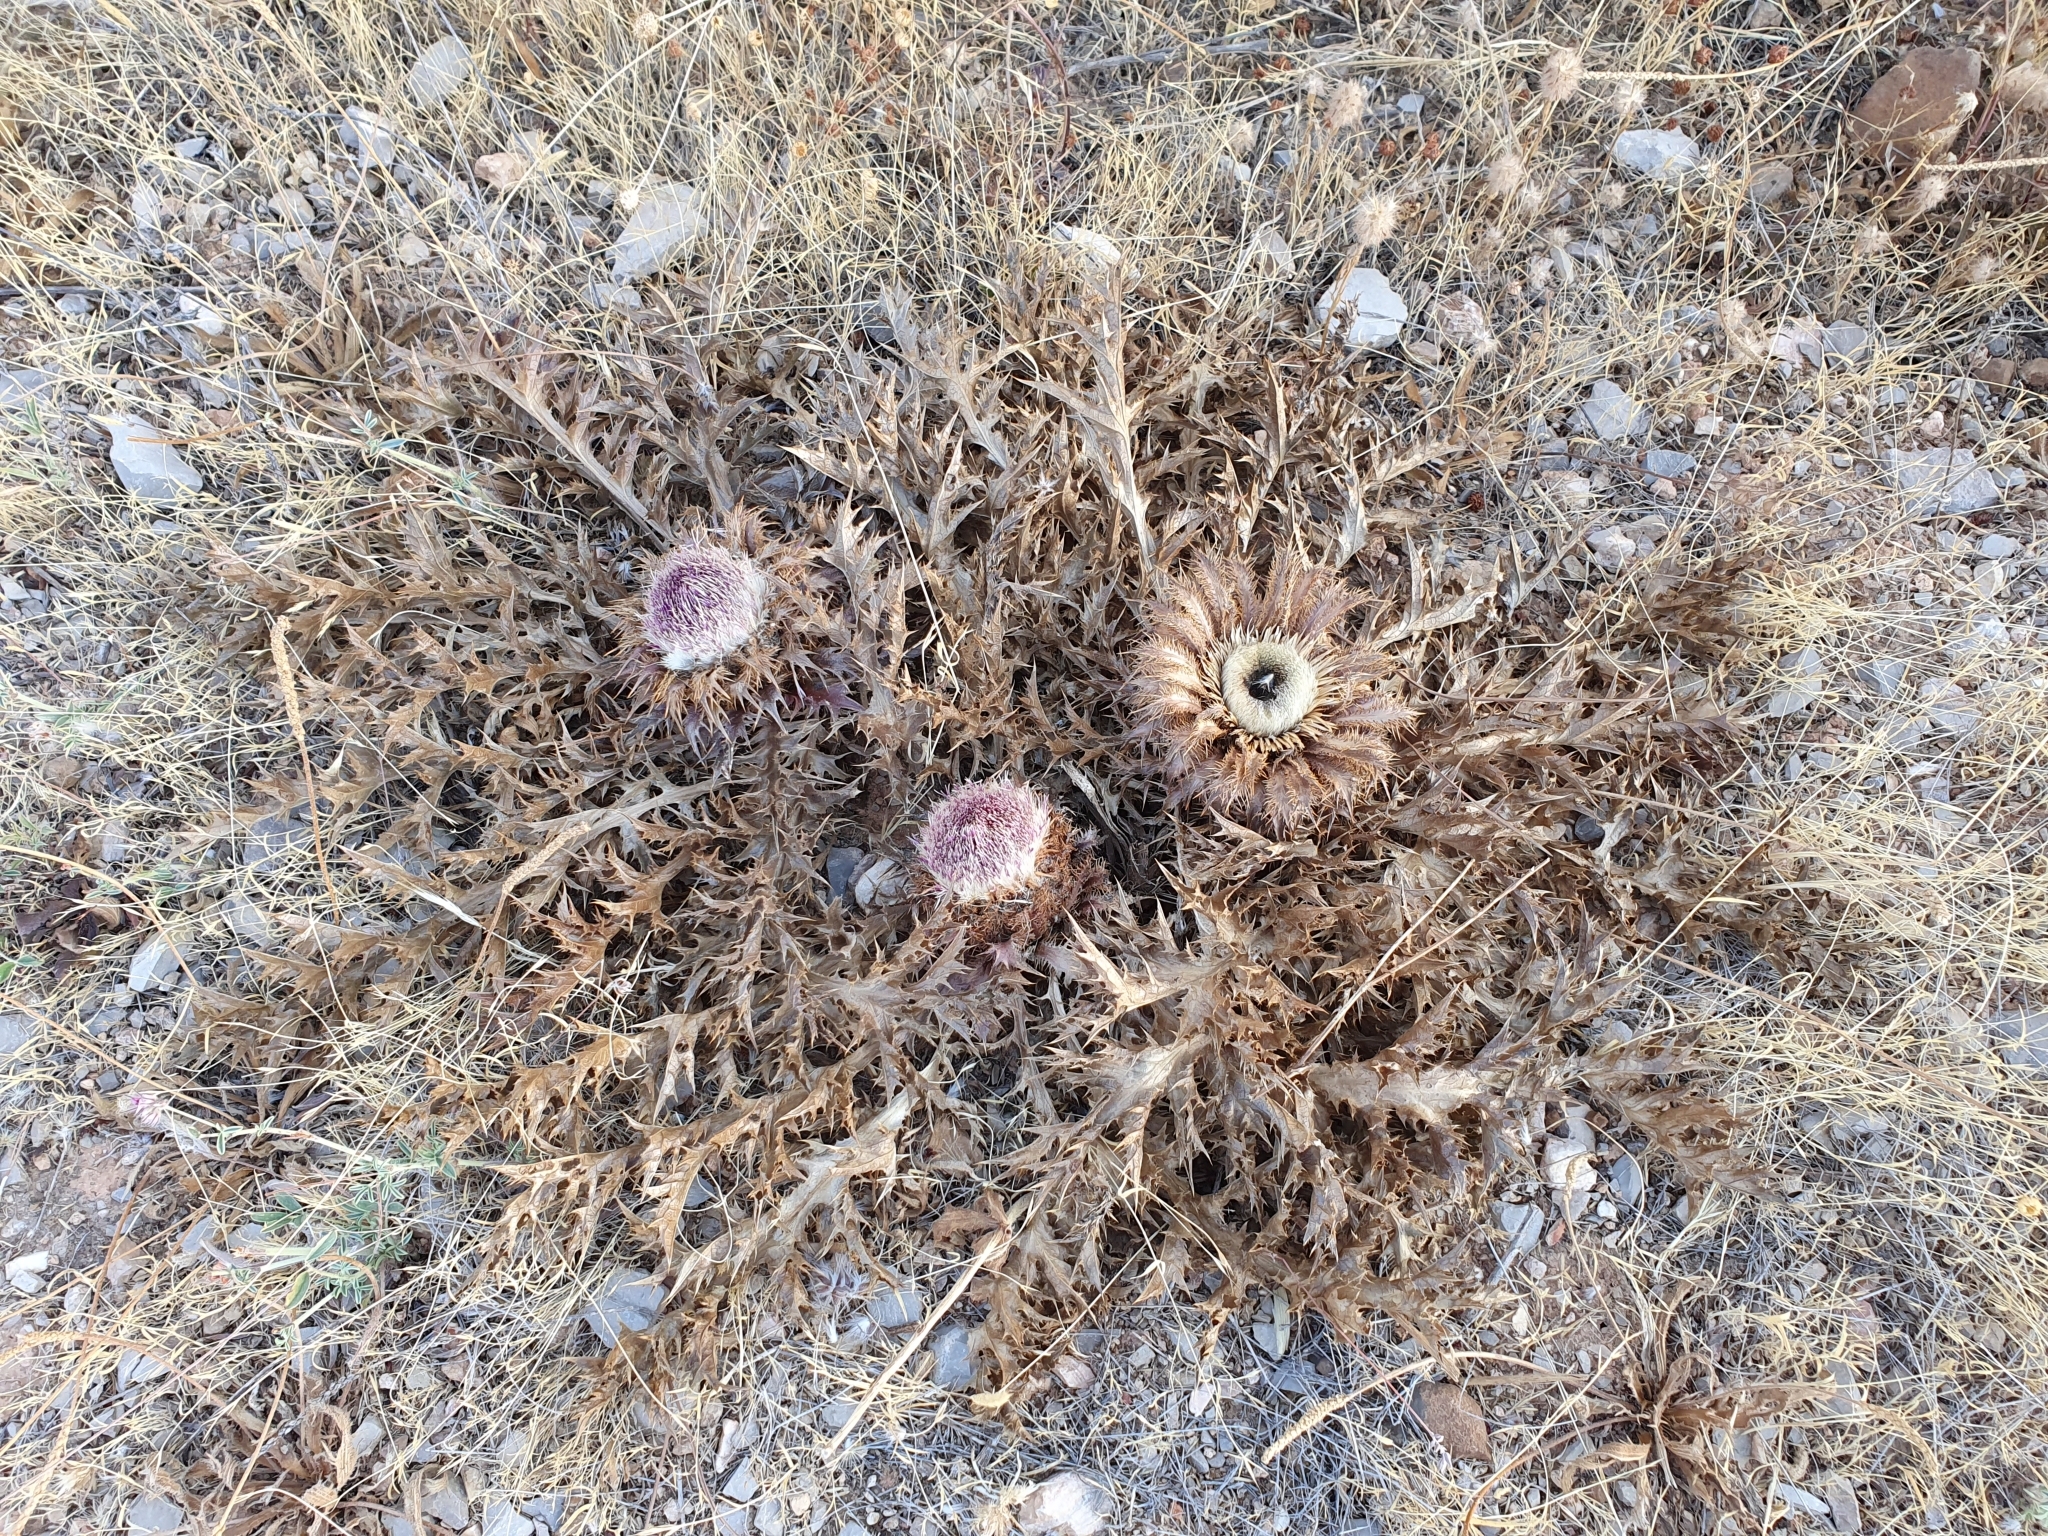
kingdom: Plantae
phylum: Tracheophyta
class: Magnoliopsida
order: Asterales
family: Asteraceae
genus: Chamaeleon
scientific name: Chamaeleon gummifer
